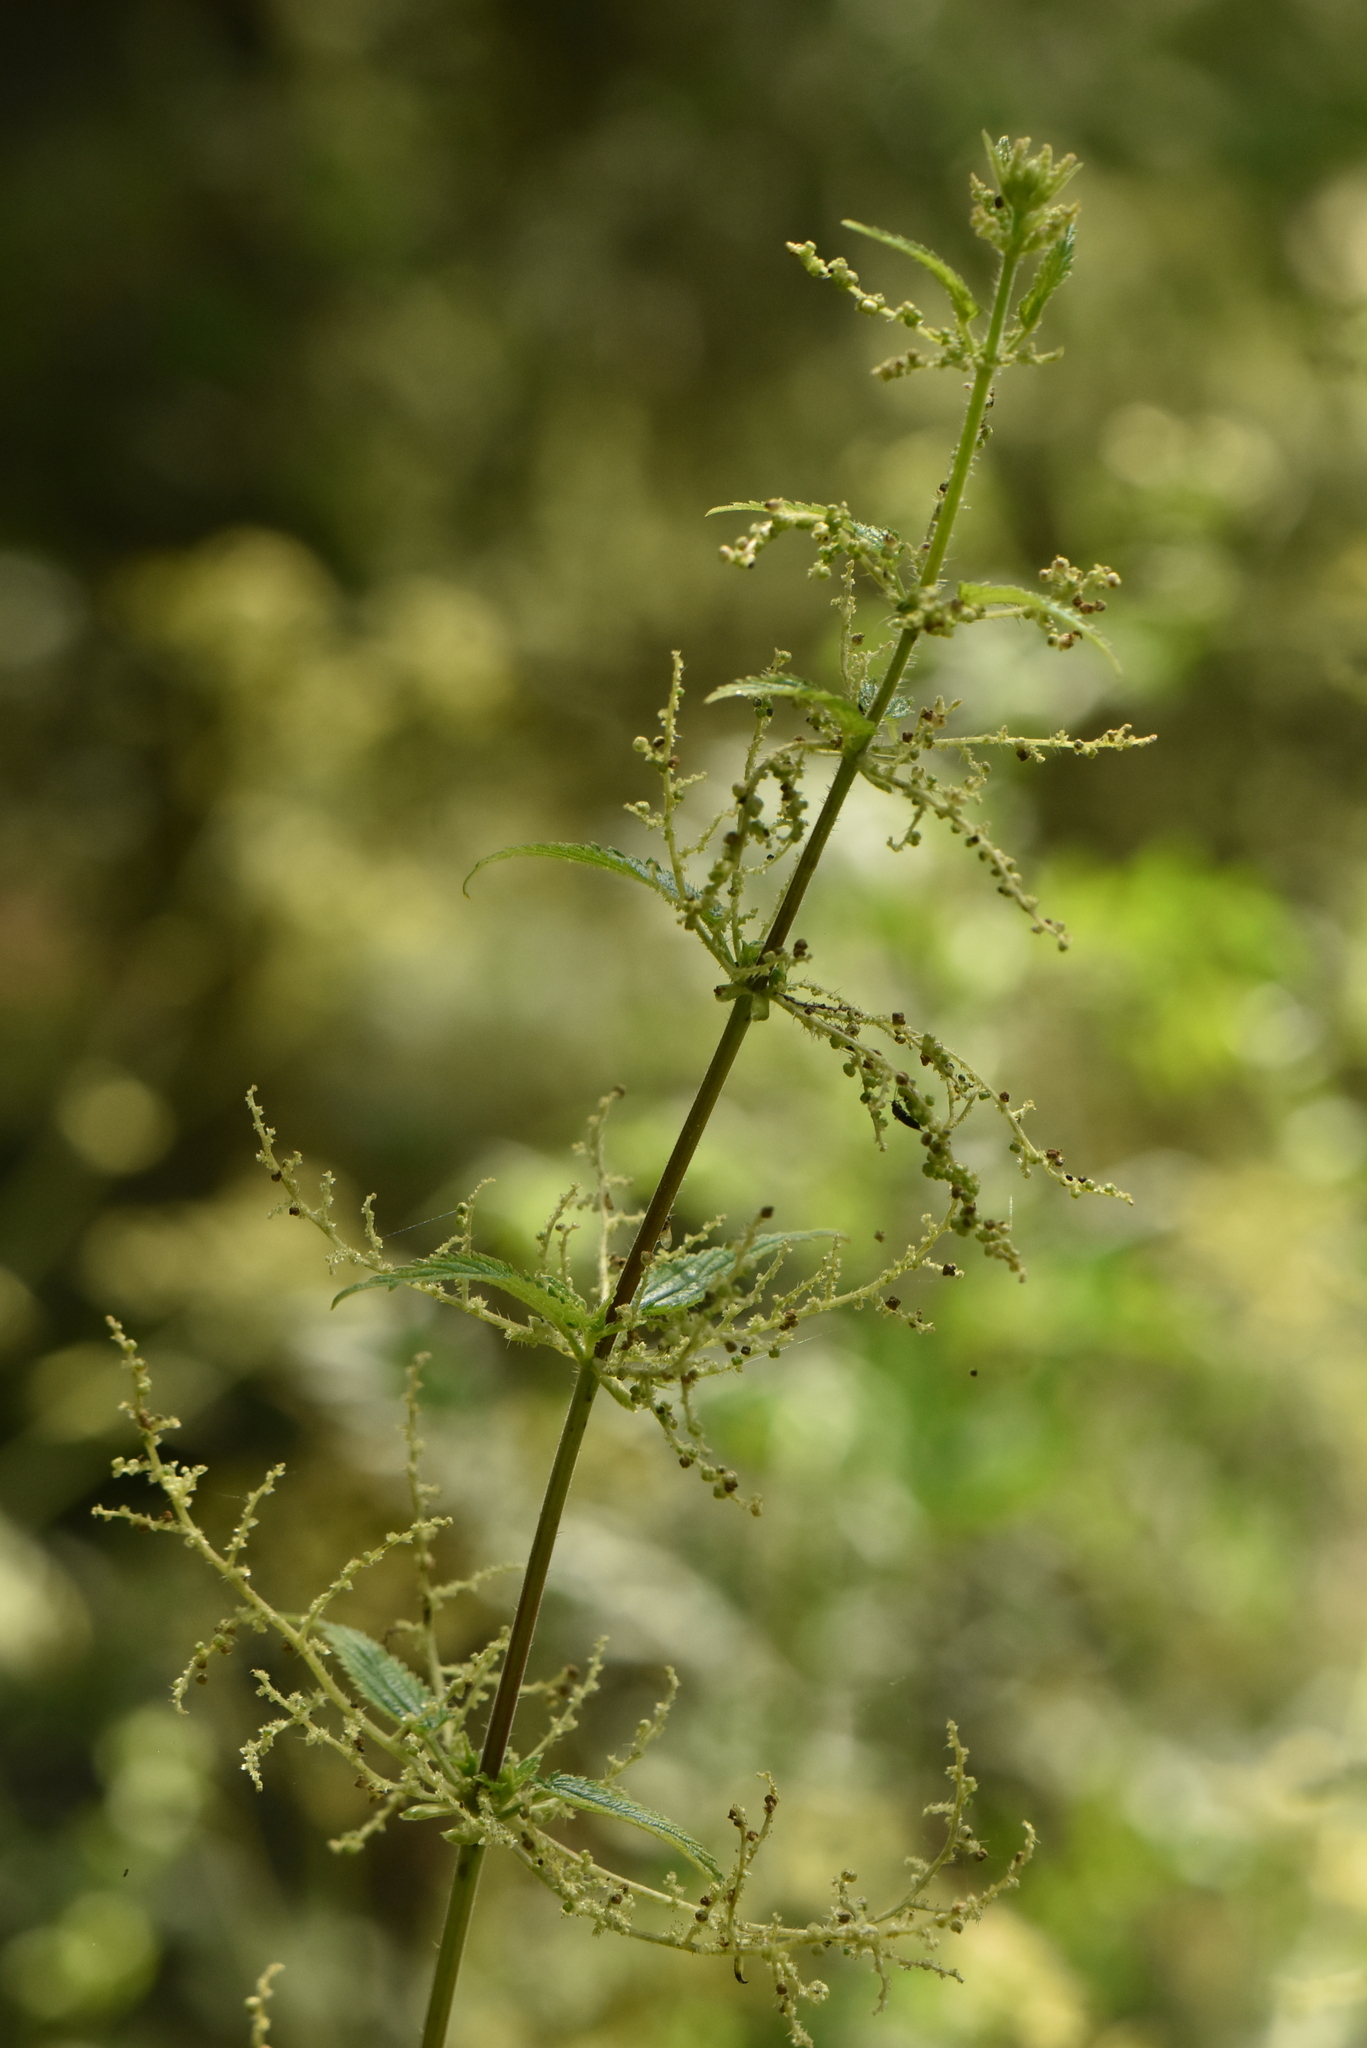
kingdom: Plantae
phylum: Tracheophyta
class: Magnoliopsida
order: Rosales
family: Urticaceae
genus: Urtica
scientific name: Urtica dioica
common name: Common nettle
